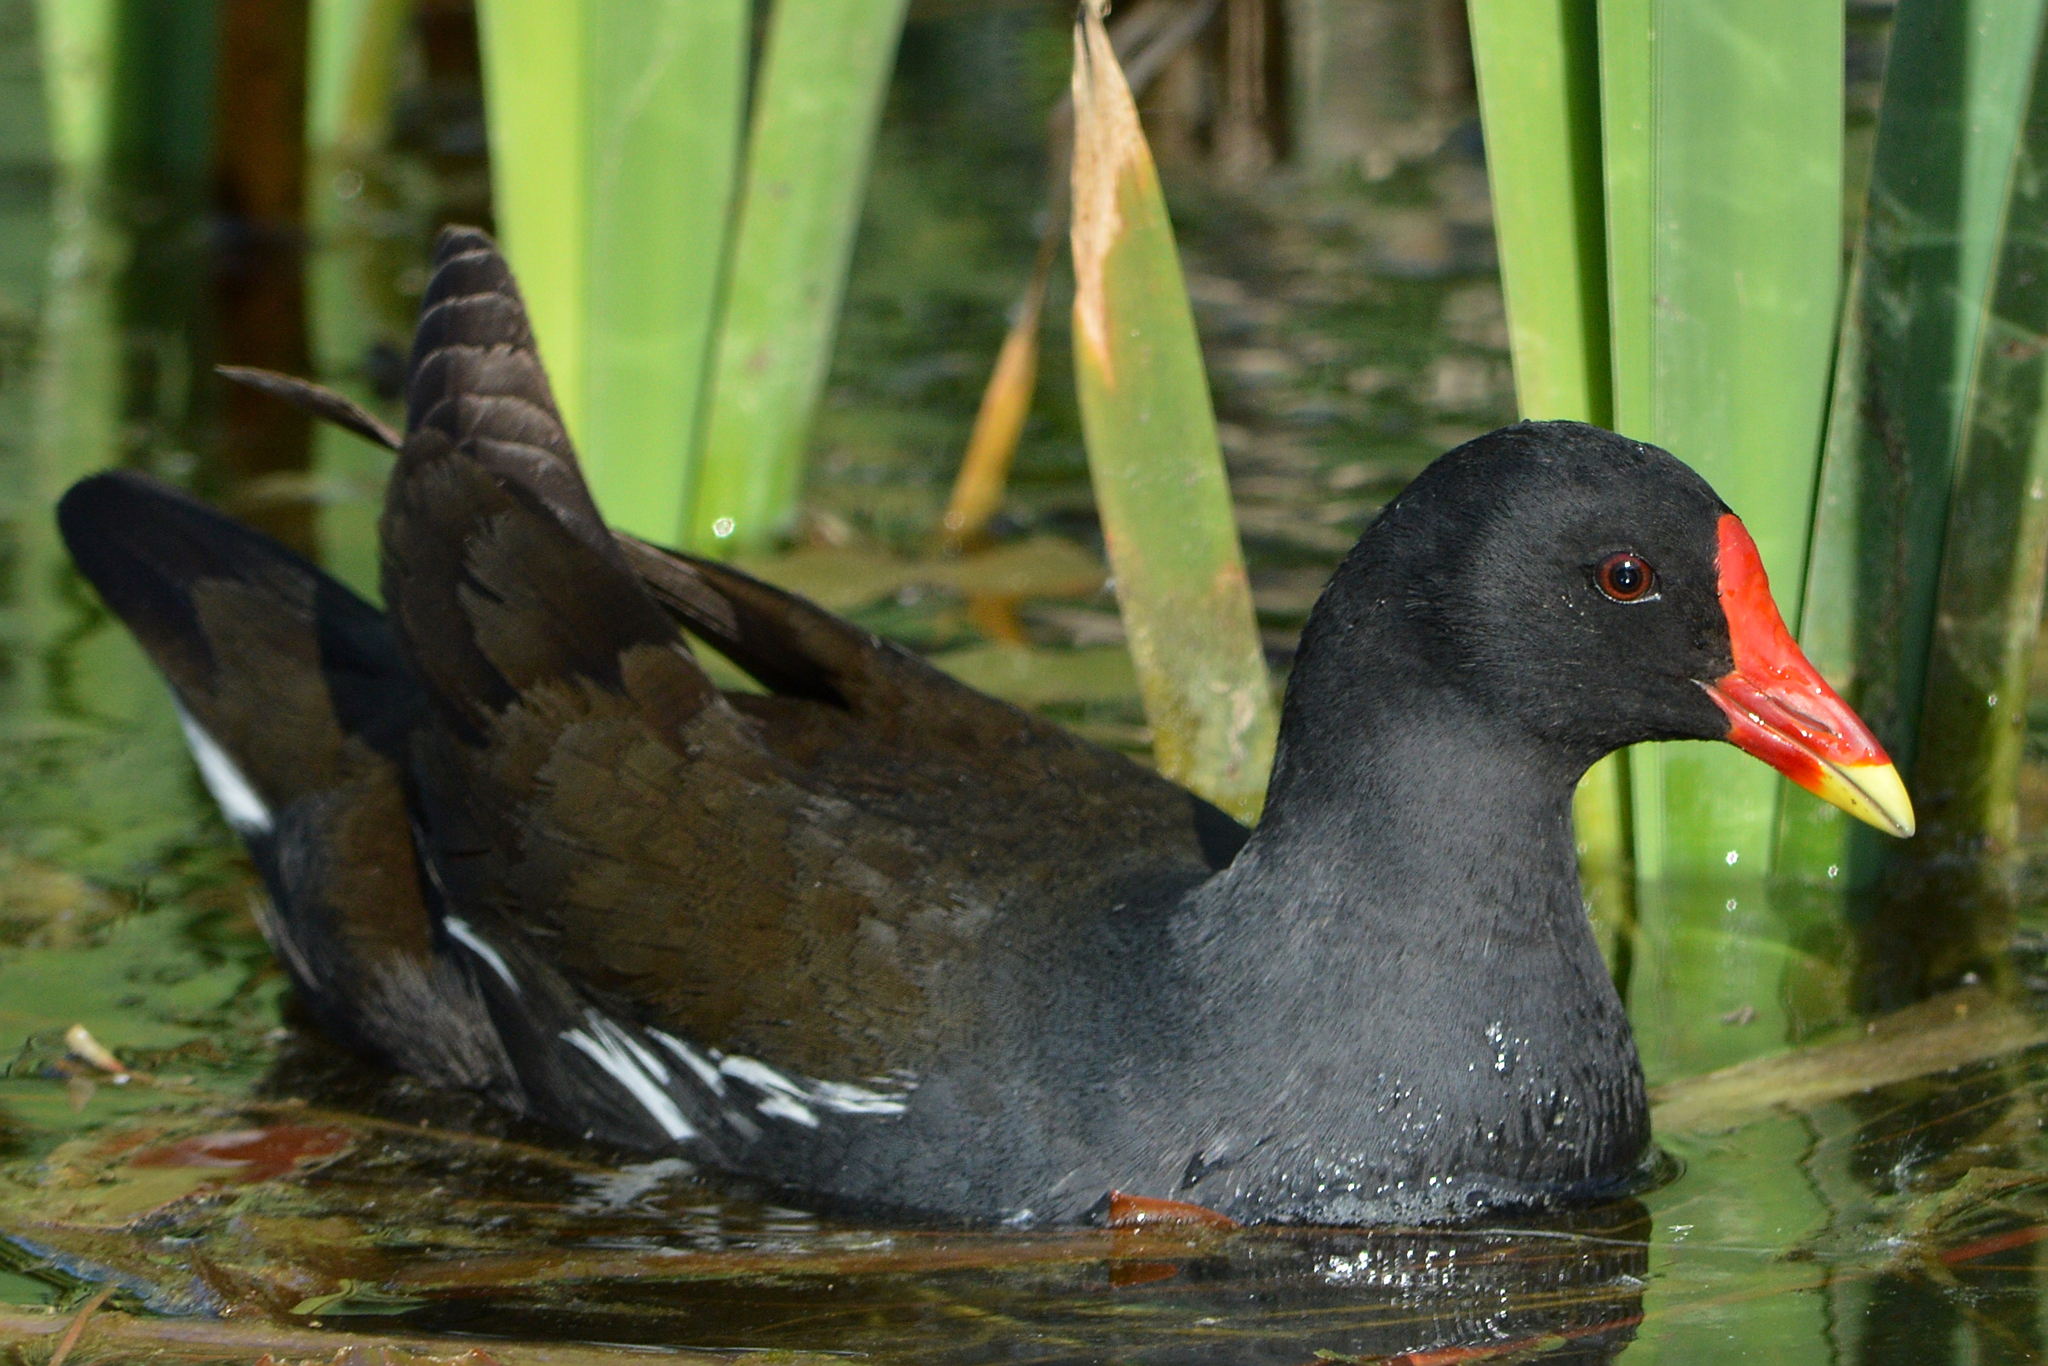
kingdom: Animalia
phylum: Chordata
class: Aves
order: Gruiformes
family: Rallidae
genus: Gallinula
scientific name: Gallinula chloropus
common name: Common moorhen
